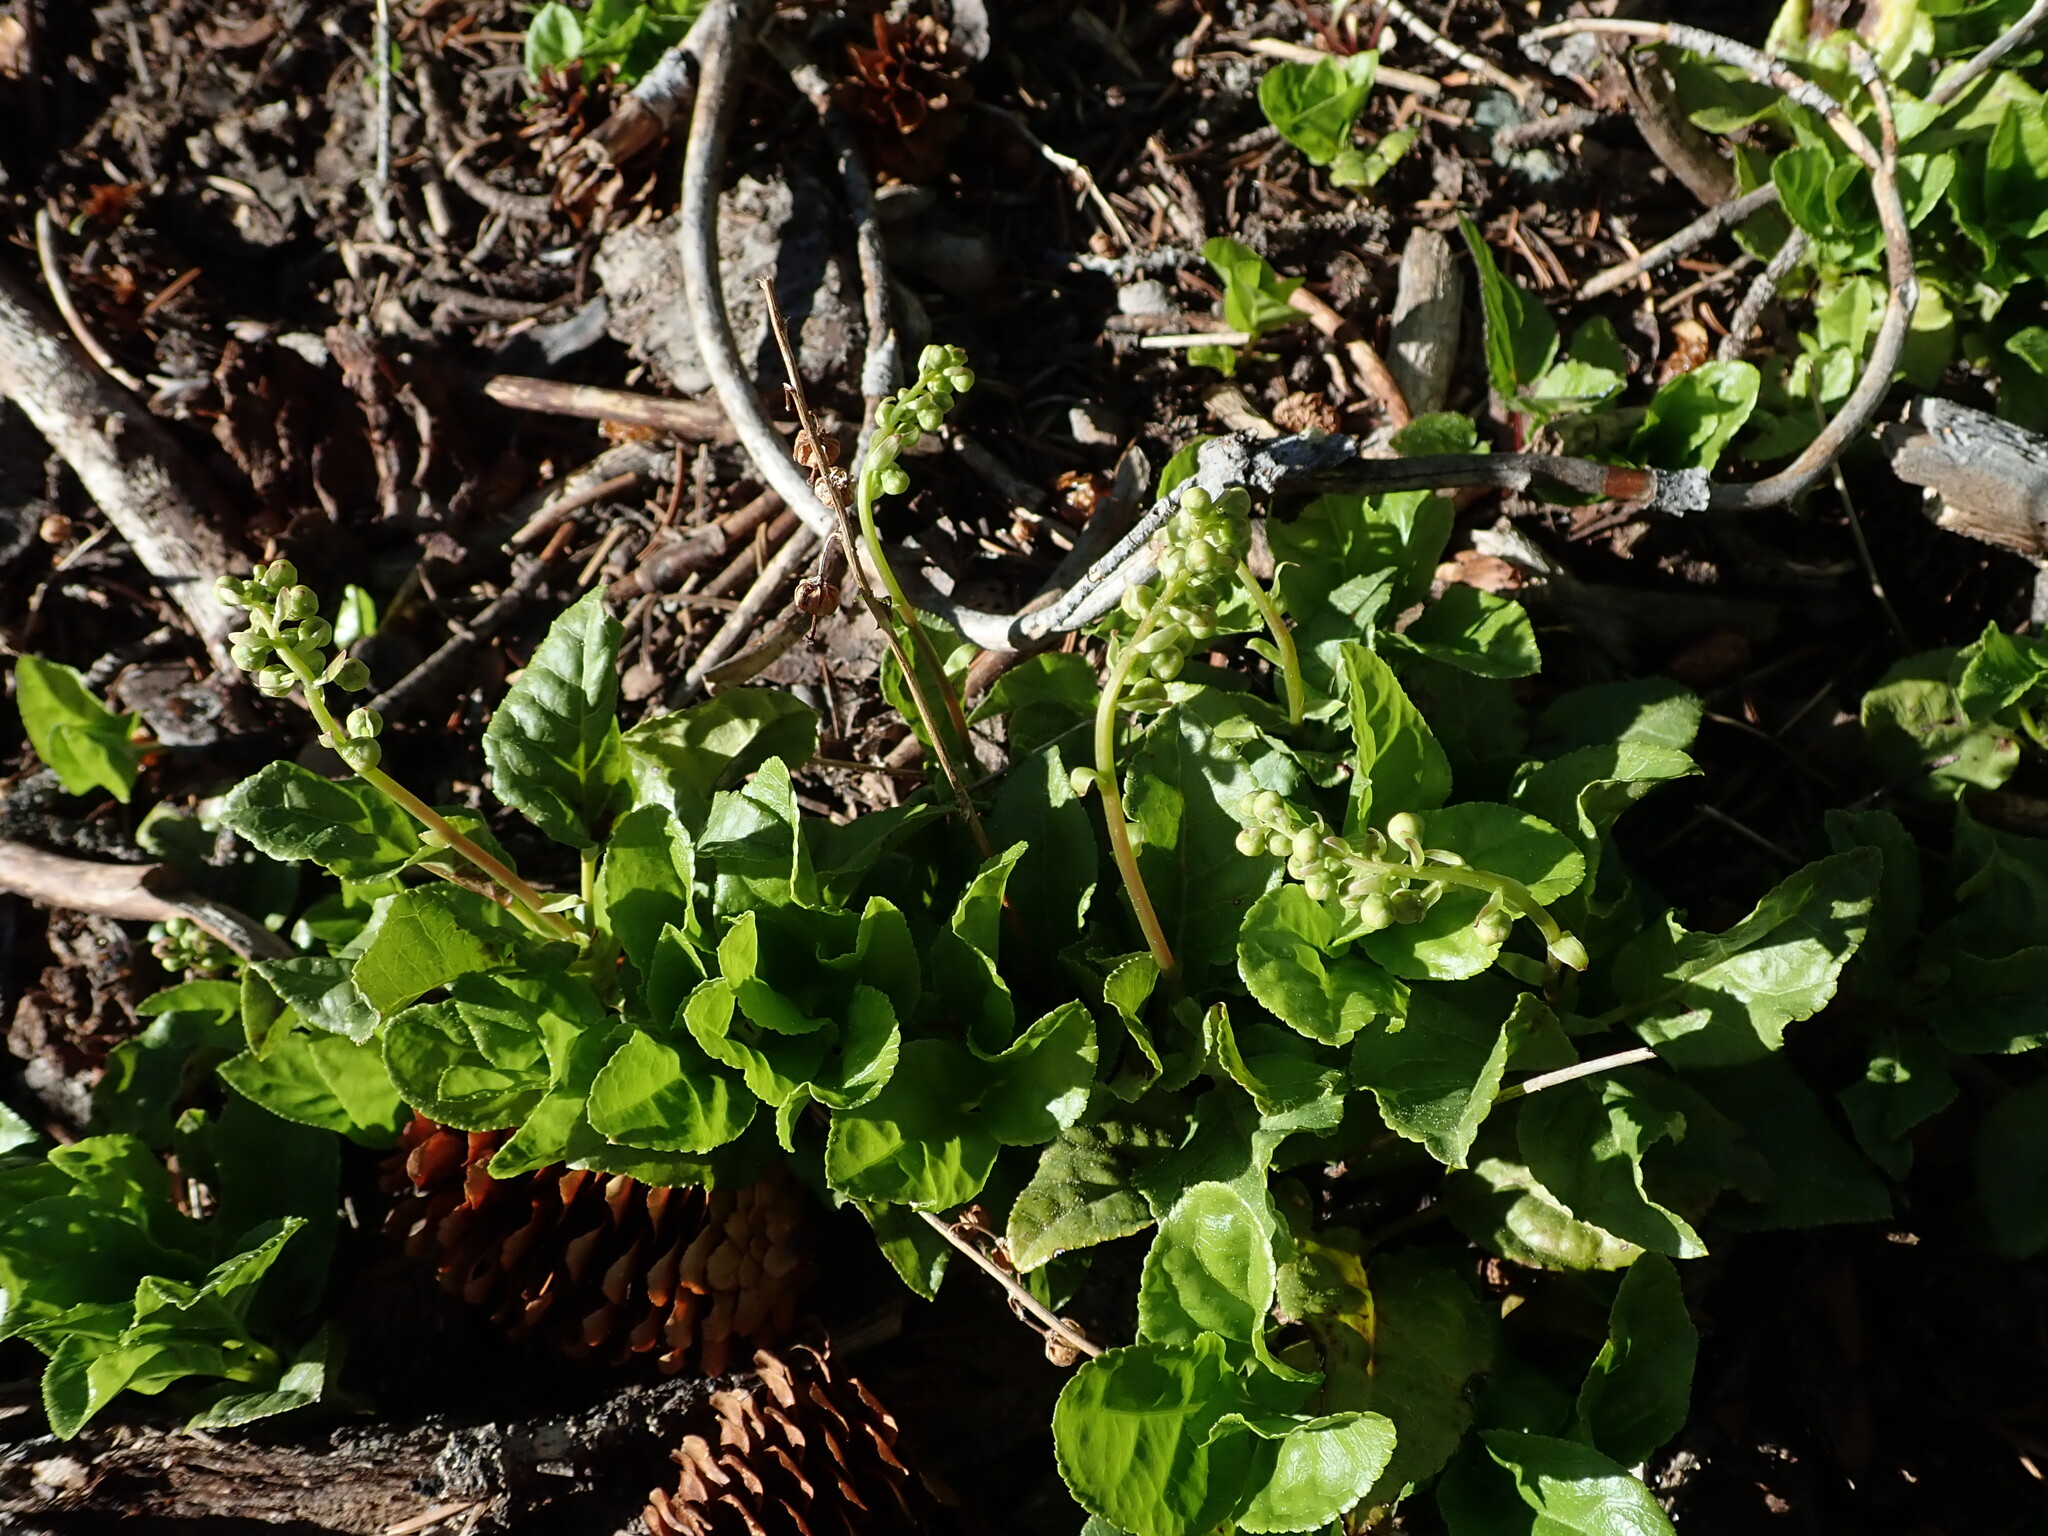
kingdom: Plantae
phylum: Tracheophyta
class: Magnoliopsida
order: Ericales
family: Ericaceae
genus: Orthilia
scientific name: Orthilia secunda
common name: One-sided orthilia
